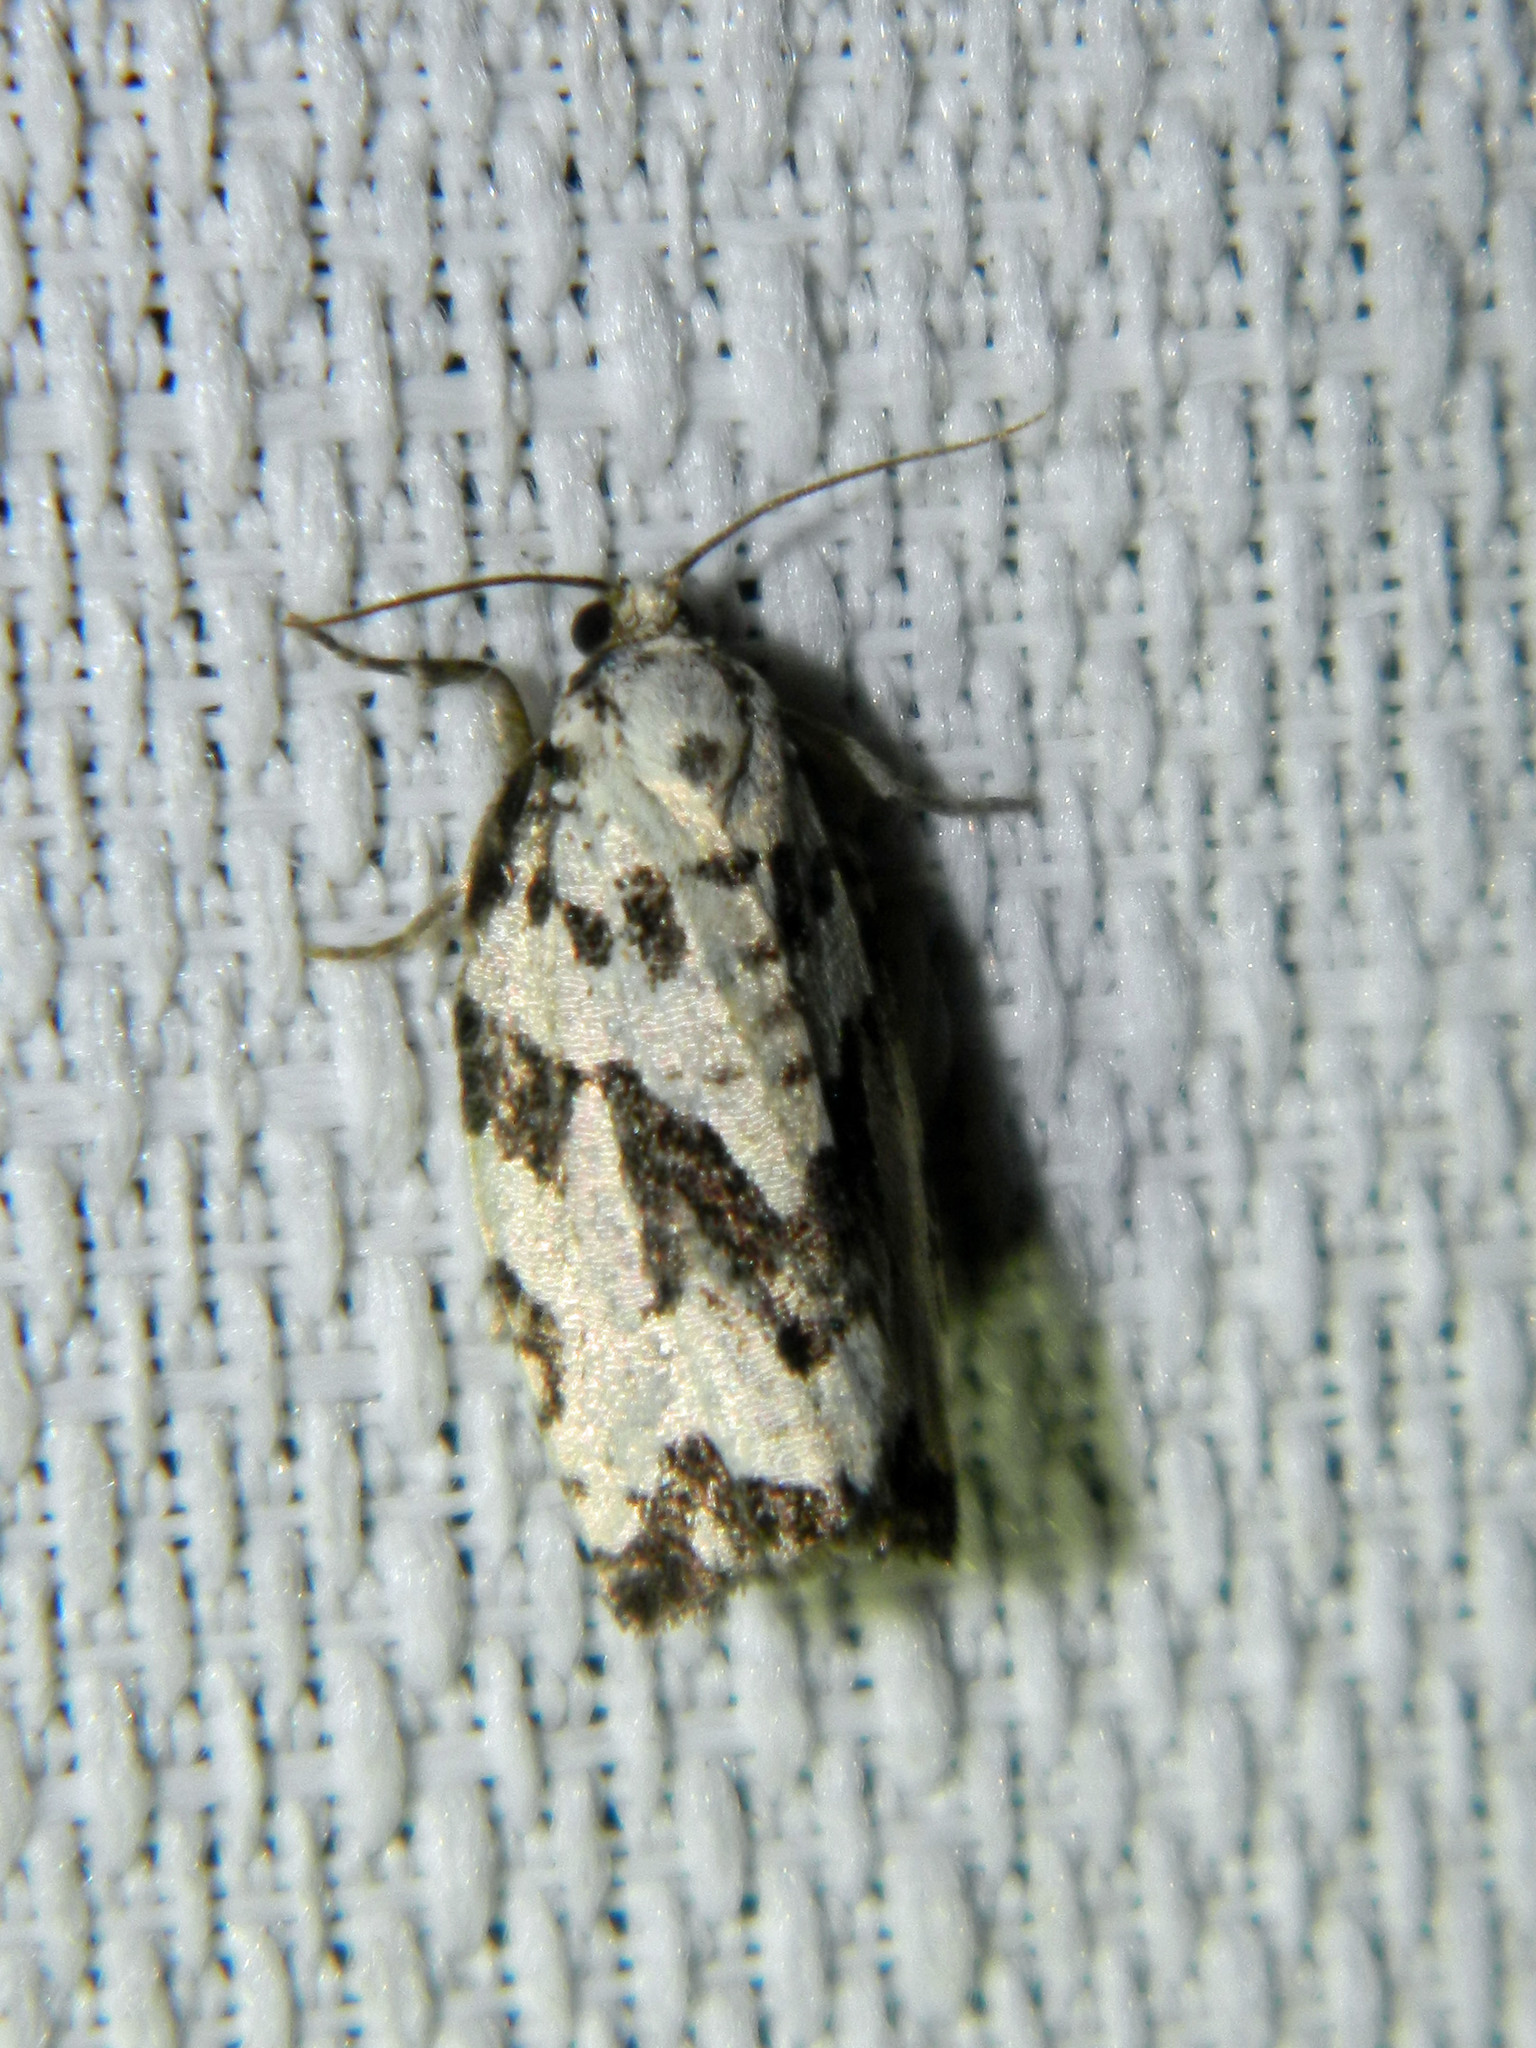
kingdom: Animalia
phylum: Arthropoda
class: Insecta
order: Lepidoptera
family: Tortricidae
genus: Archips
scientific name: Archips dissitana
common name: Boldly-marked archips moth
